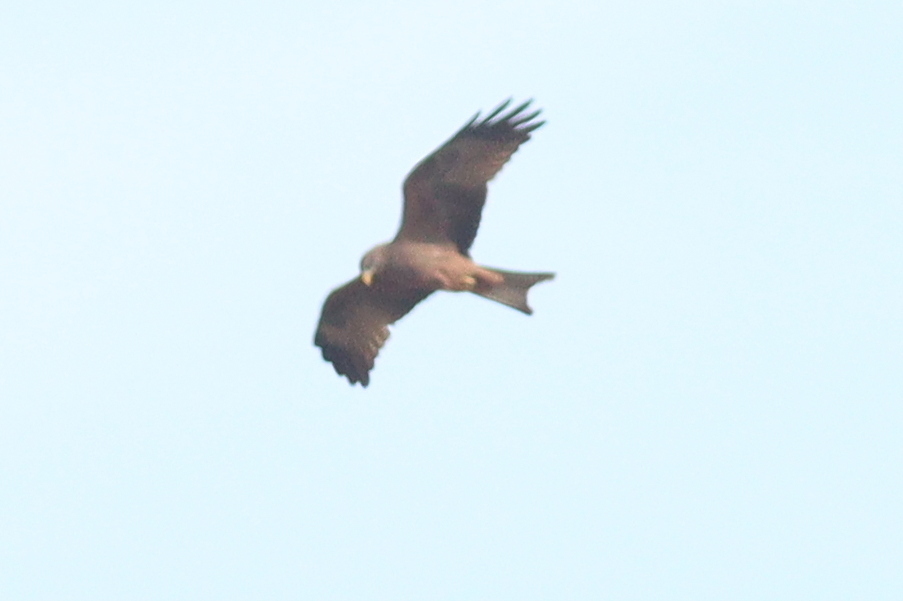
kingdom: Animalia
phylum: Chordata
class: Aves
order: Accipitriformes
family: Accipitridae
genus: Milvus
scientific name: Milvus migrans
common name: Black kite
